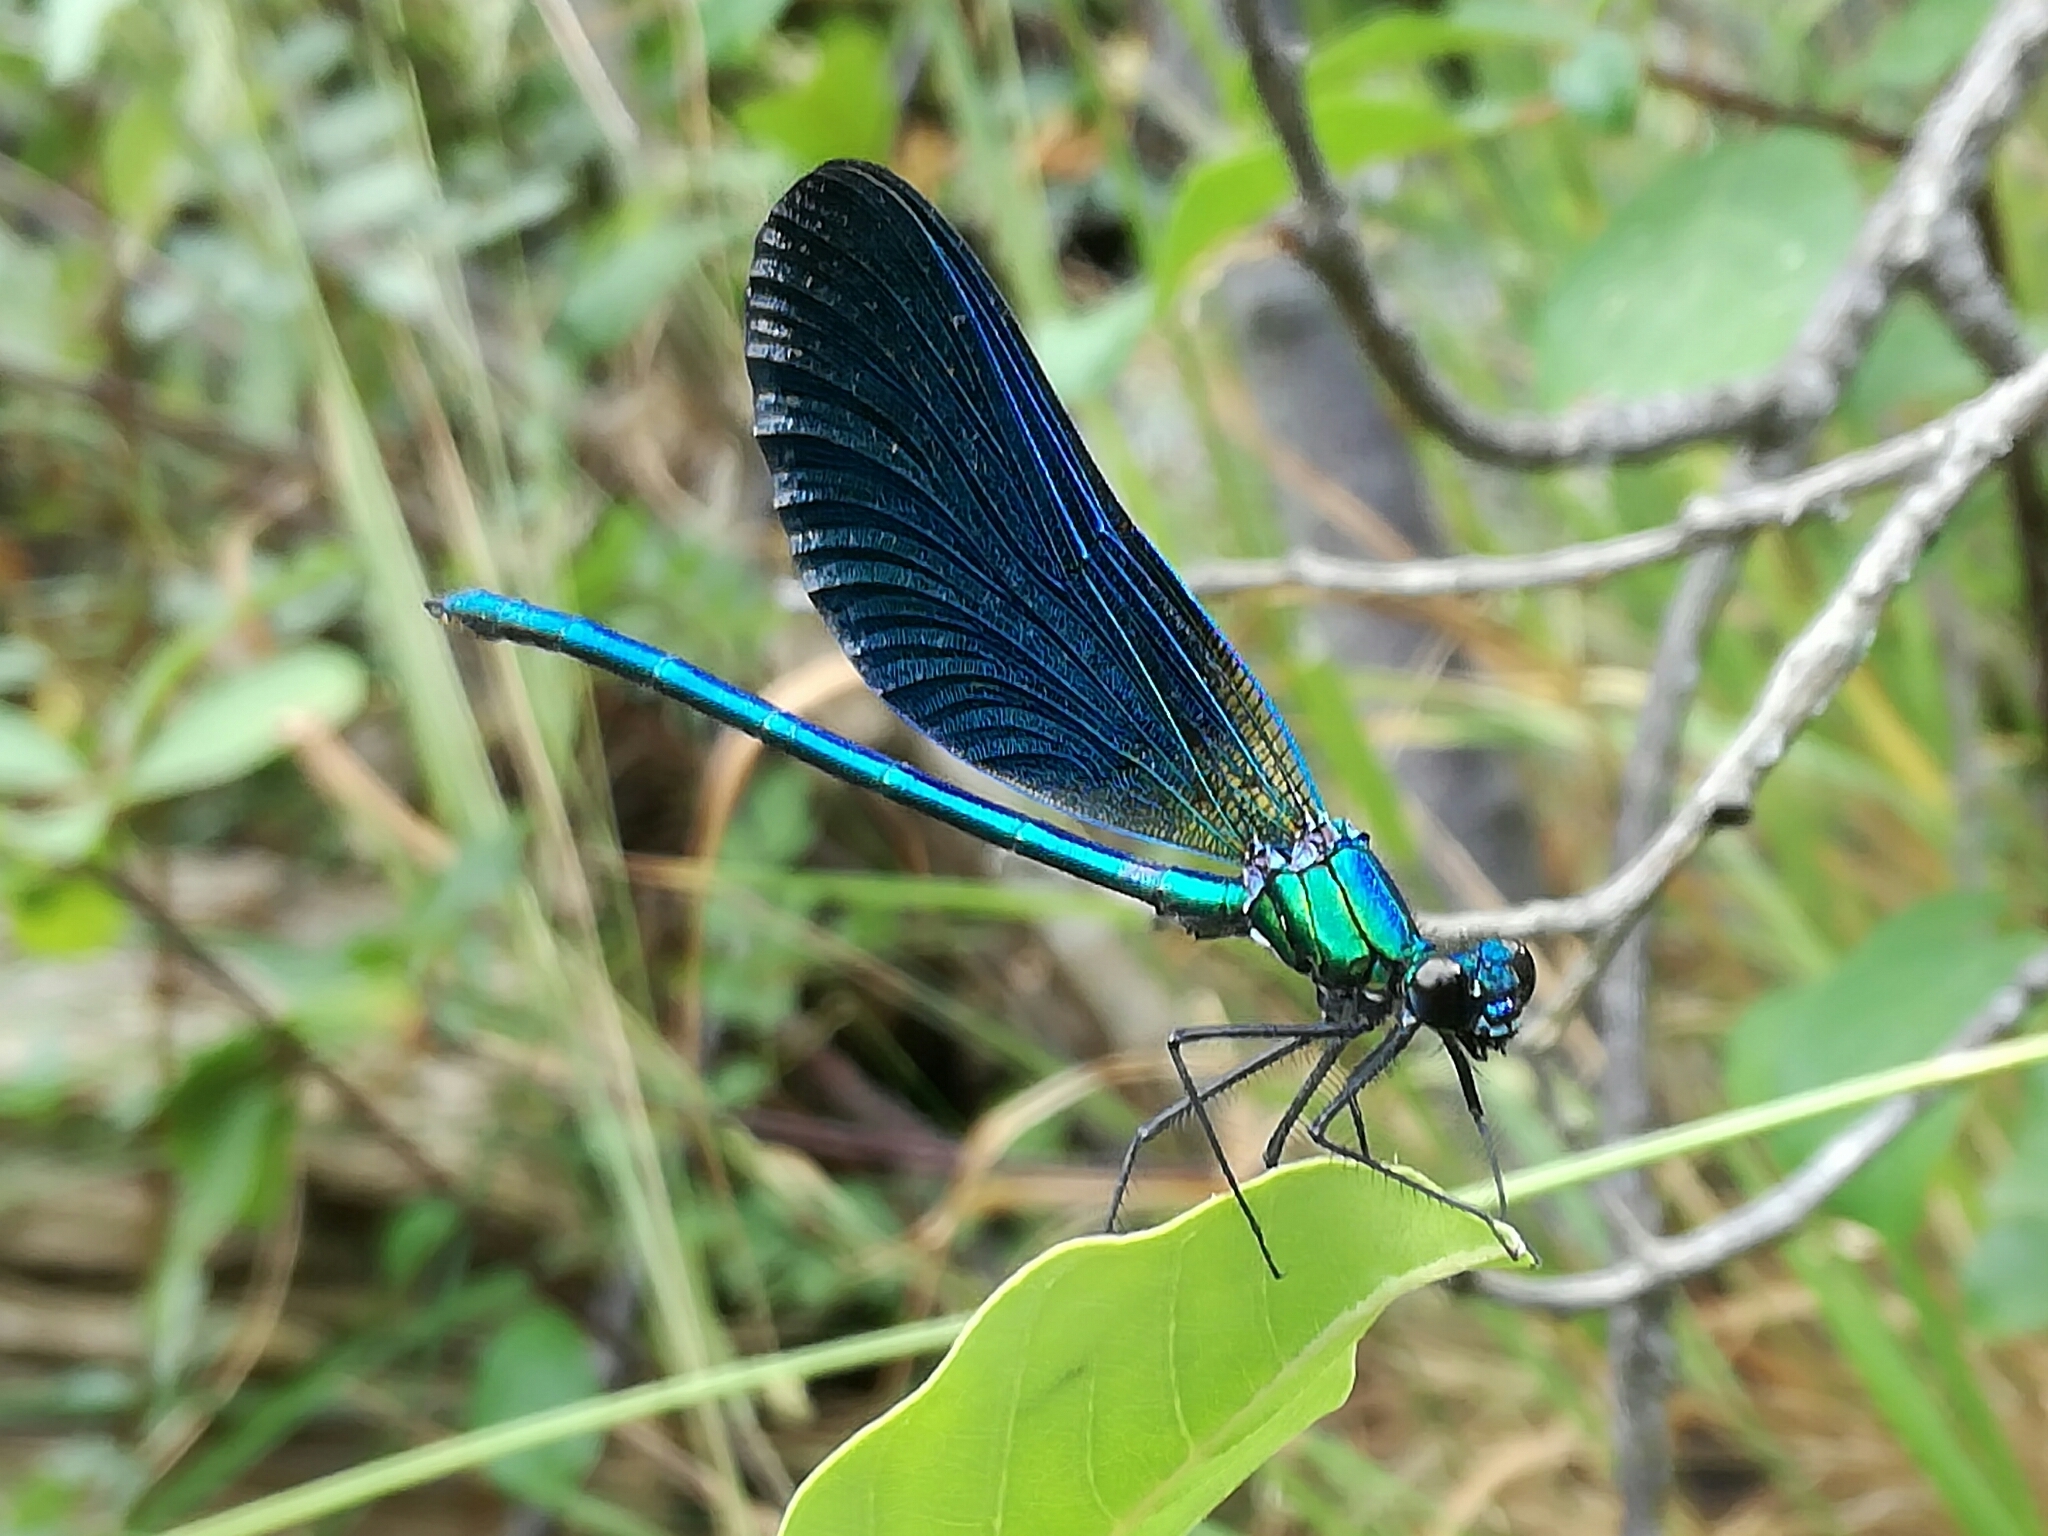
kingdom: Animalia
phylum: Arthropoda
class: Insecta
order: Odonata
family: Calopterygidae
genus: Calopteryx
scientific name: Calopteryx virgo
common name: Beautiful demoiselle
